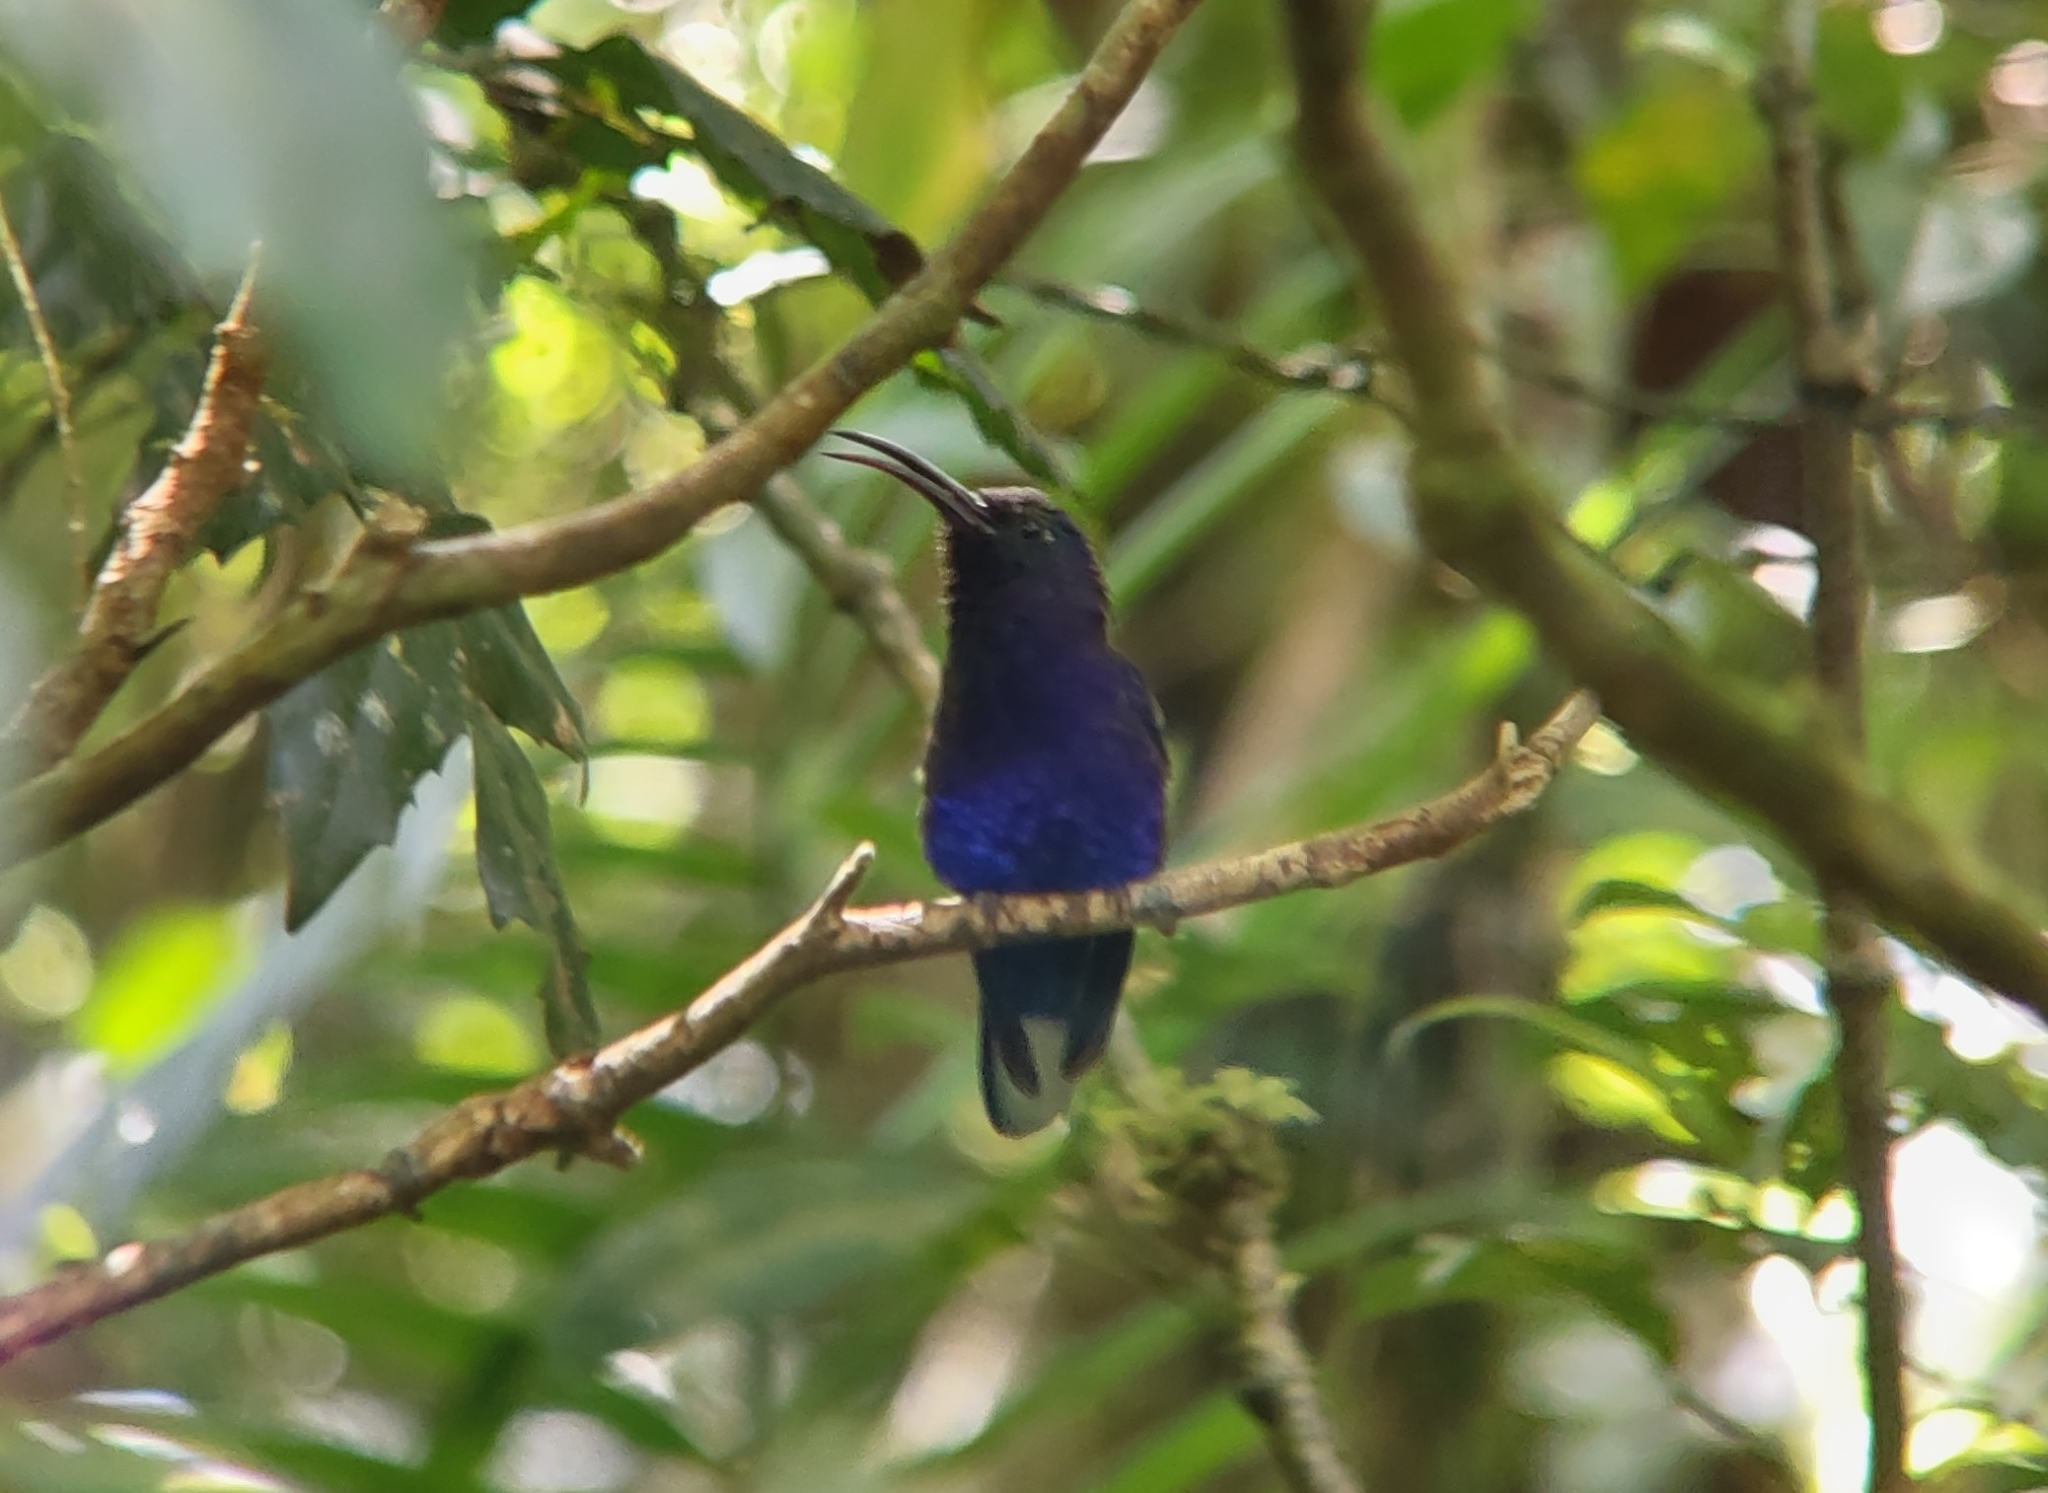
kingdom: Animalia
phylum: Chordata
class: Aves
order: Apodiformes
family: Trochilidae
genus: Campylopterus
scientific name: Campylopterus hemileucurus
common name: Violet sabrewing
